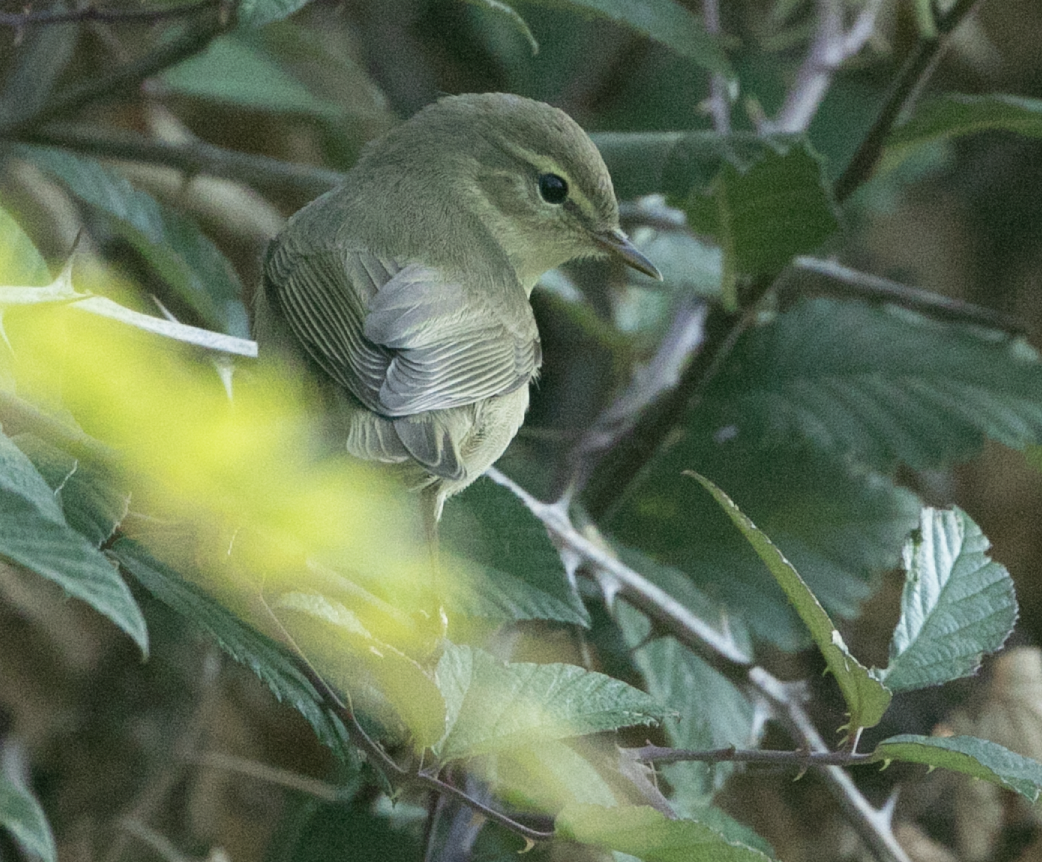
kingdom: Animalia
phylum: Chordata
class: Aves
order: Passeriformes
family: Phylloscopidae
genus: Phylloscopus
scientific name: Phylloscopus trochilus
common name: Willow warbler
